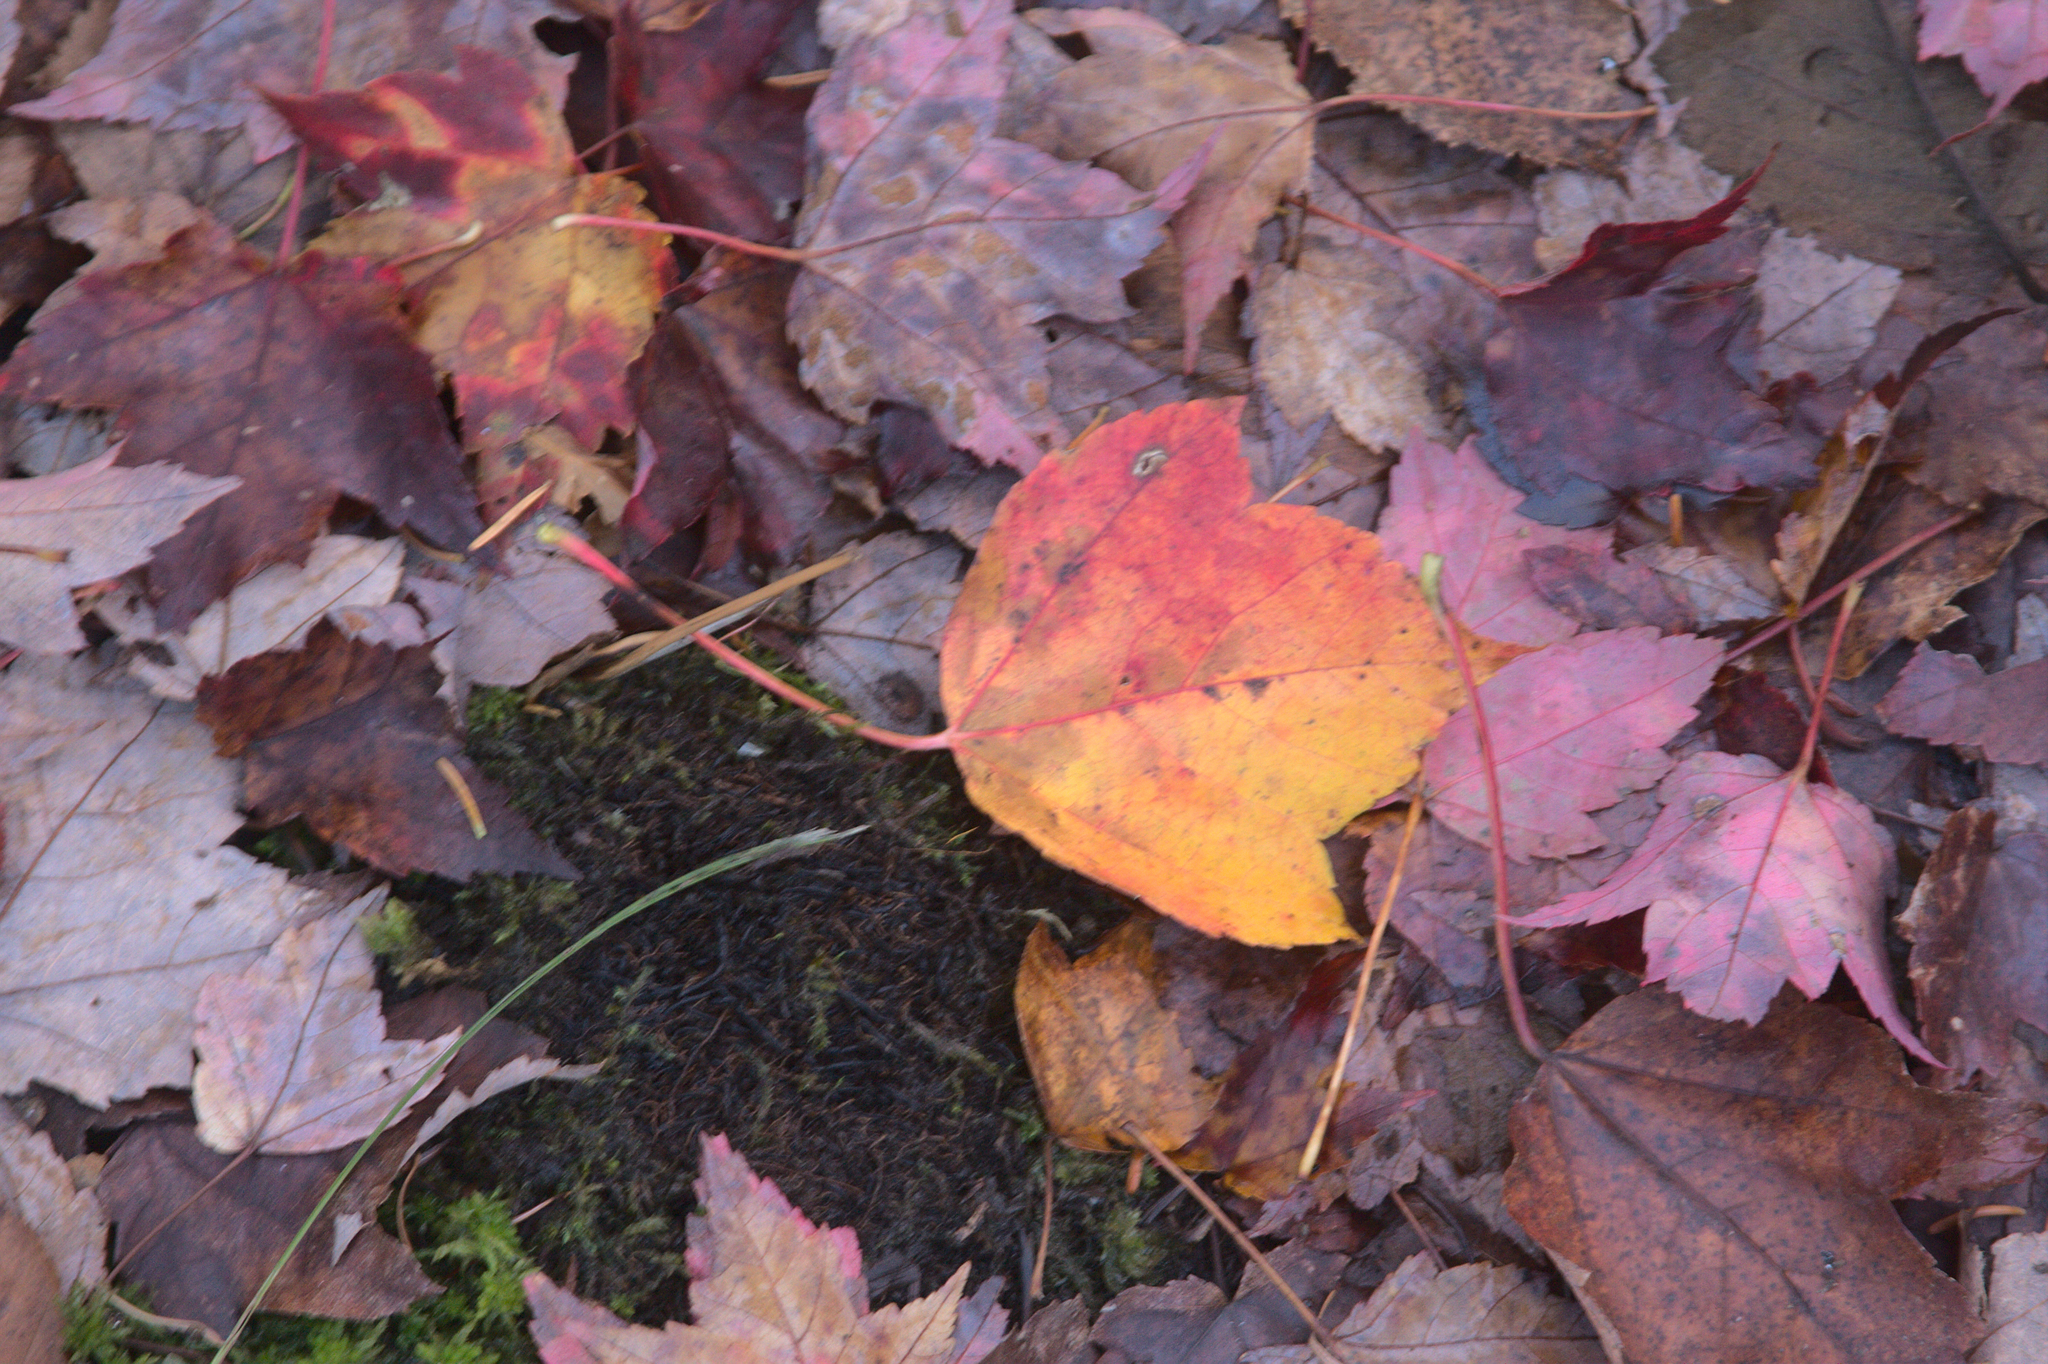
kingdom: Plantae
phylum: Tracheophyta
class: Magnoliopsida
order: Sapindales
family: Sapindaceae
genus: Acer
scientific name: Acer rubrum
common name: Red maple
